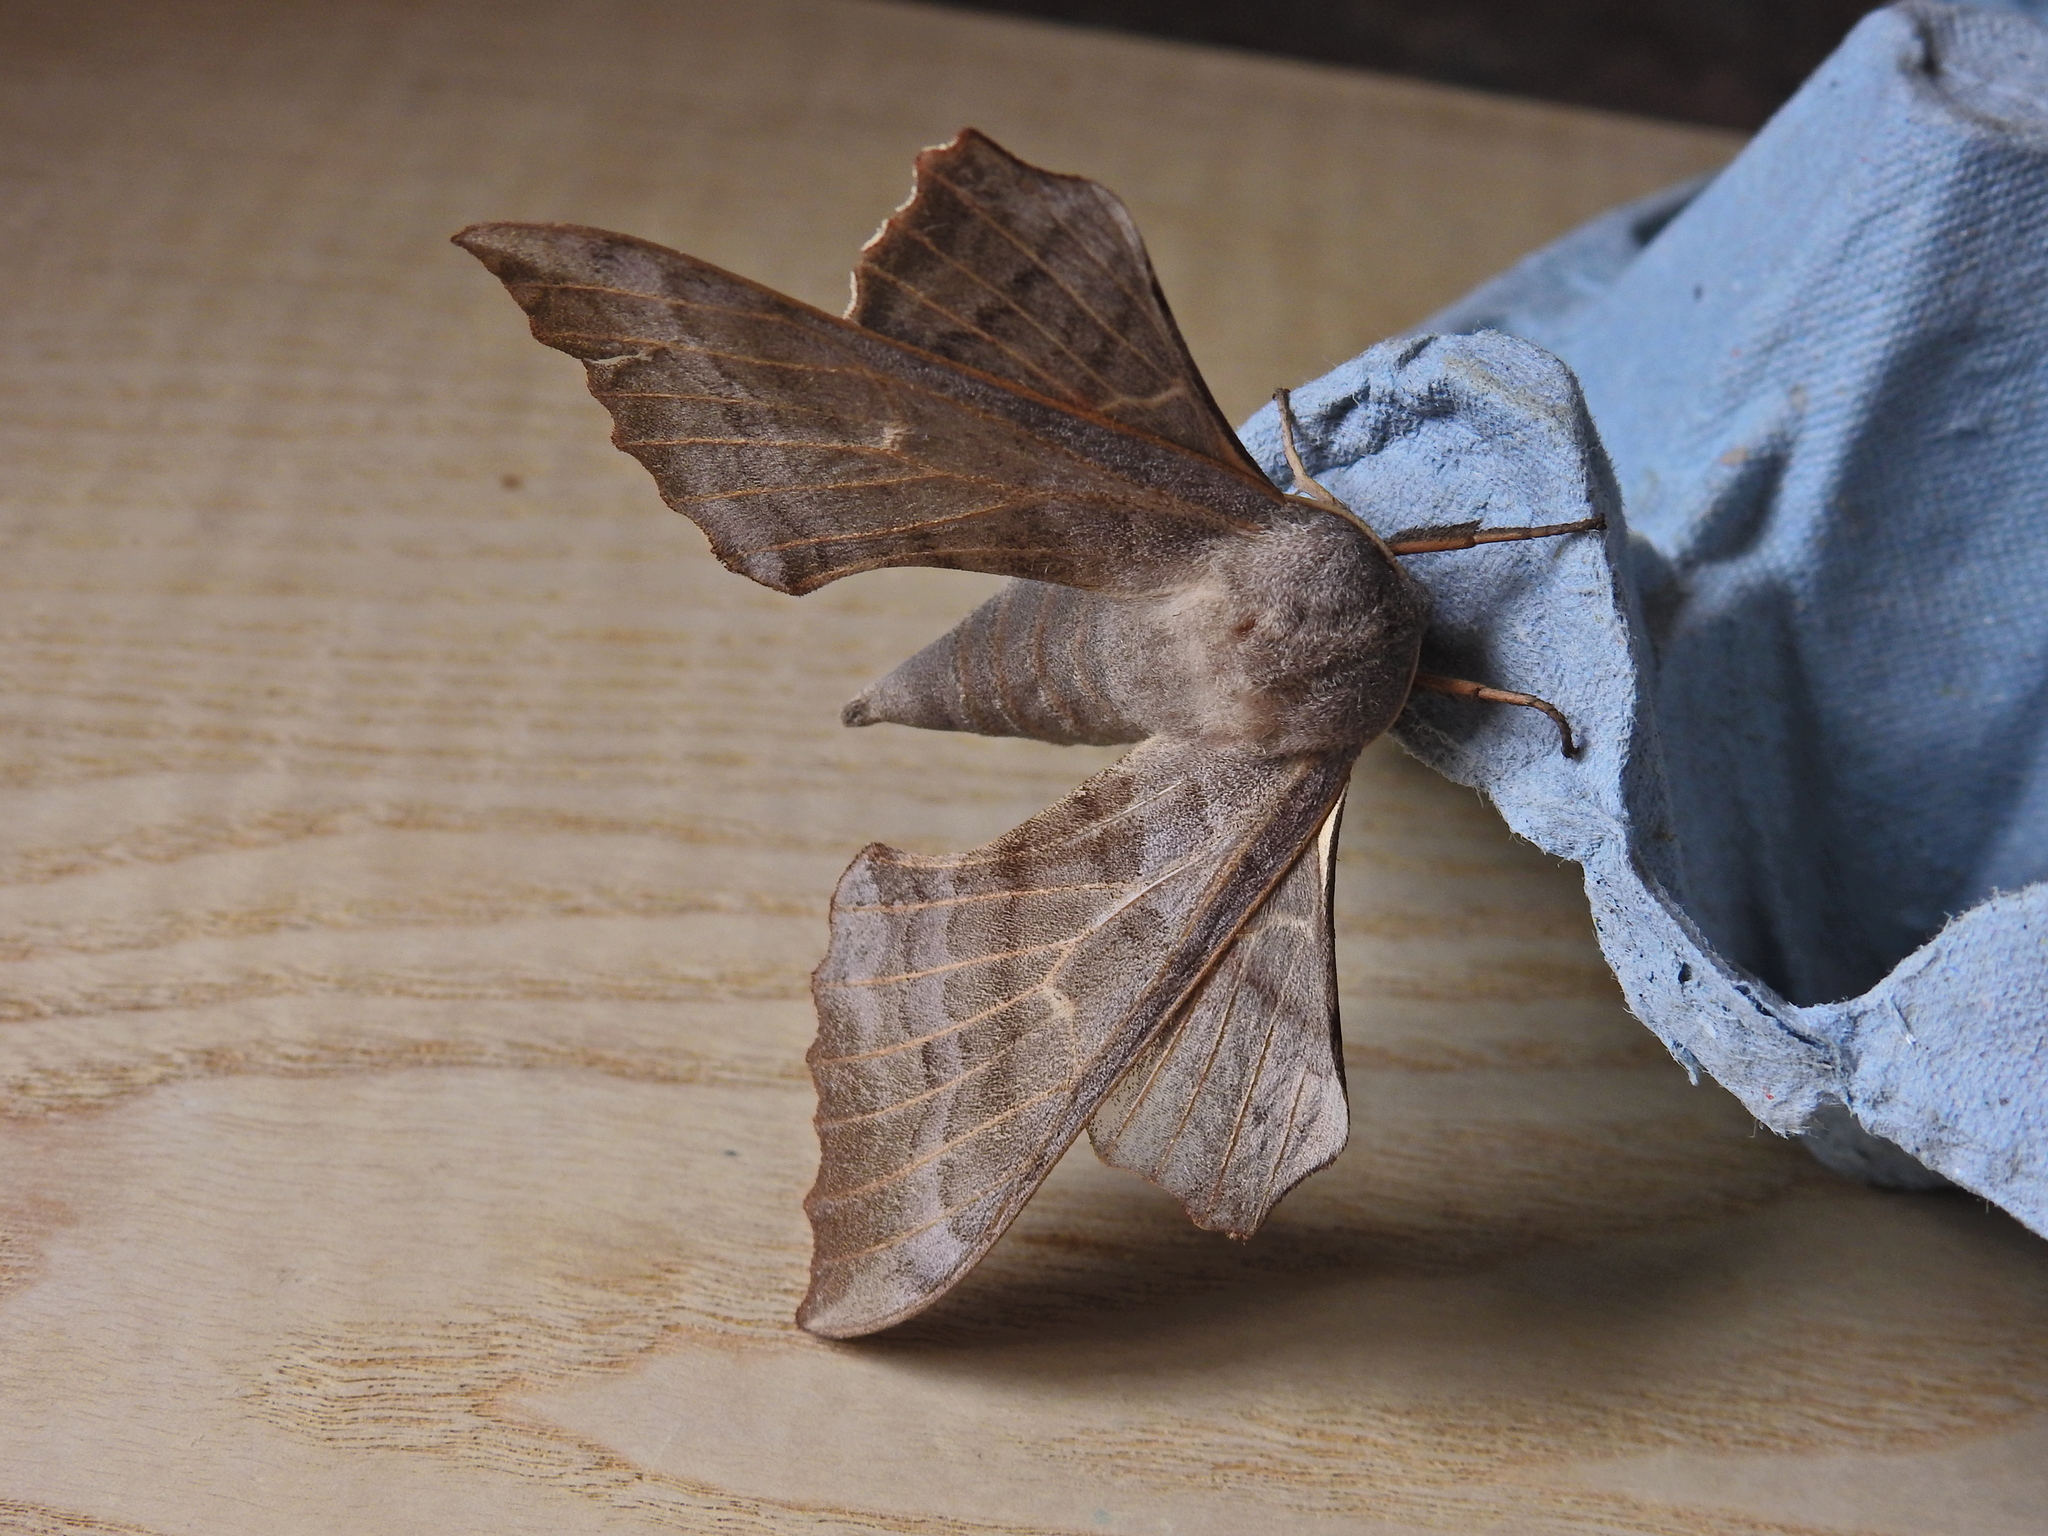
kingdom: Animalia
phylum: Arthropoda
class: Insecta
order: Lepidoptera
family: Sphingidae
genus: Laothoe
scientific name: Laothoe populi
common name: Poplar hawk-moth
